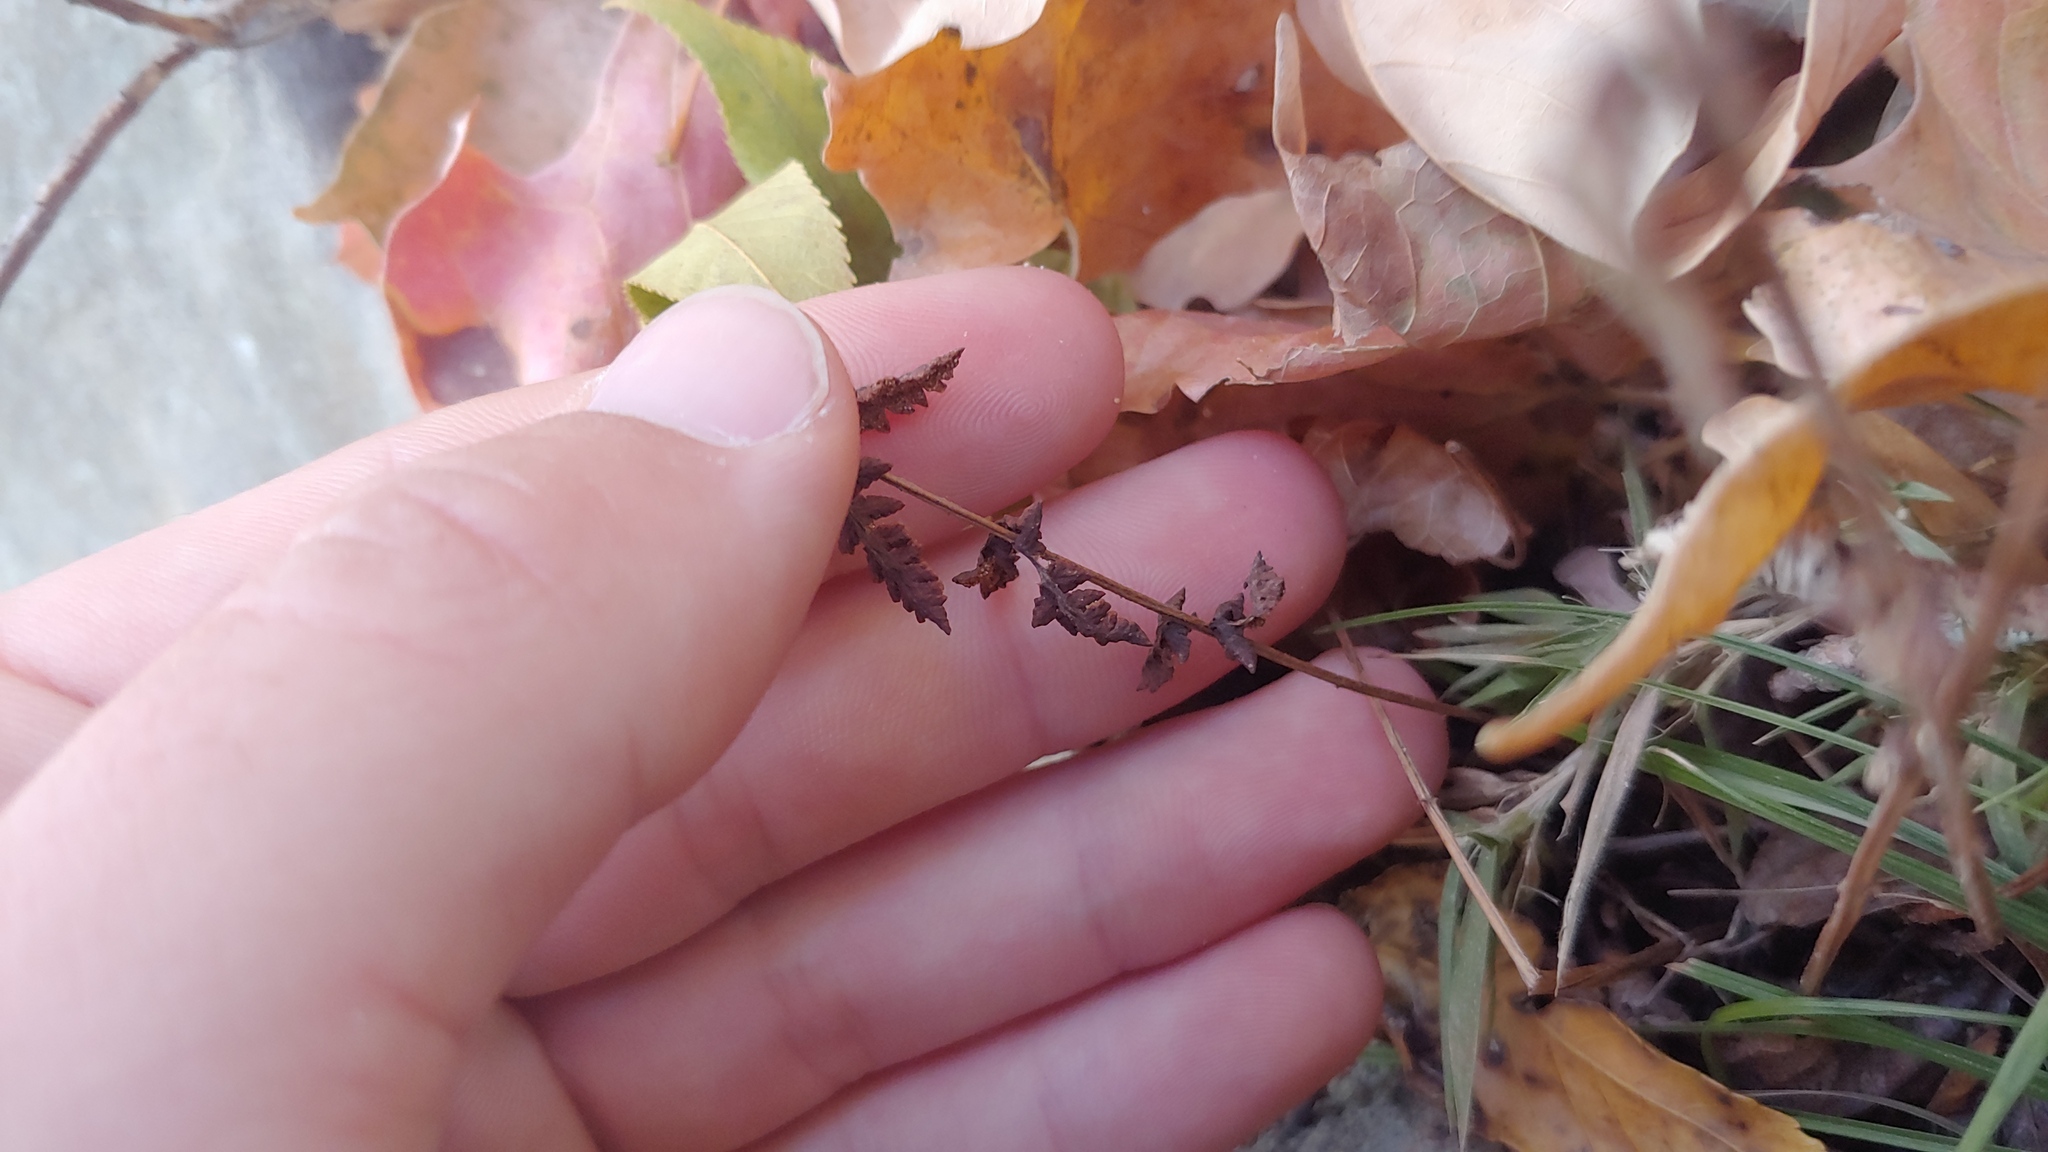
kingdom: Plantae
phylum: Tracheophyta
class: Polypodiopsida
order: Polypodiales
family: Woodsiaceae
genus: Physematium
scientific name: Physematium obtusum
